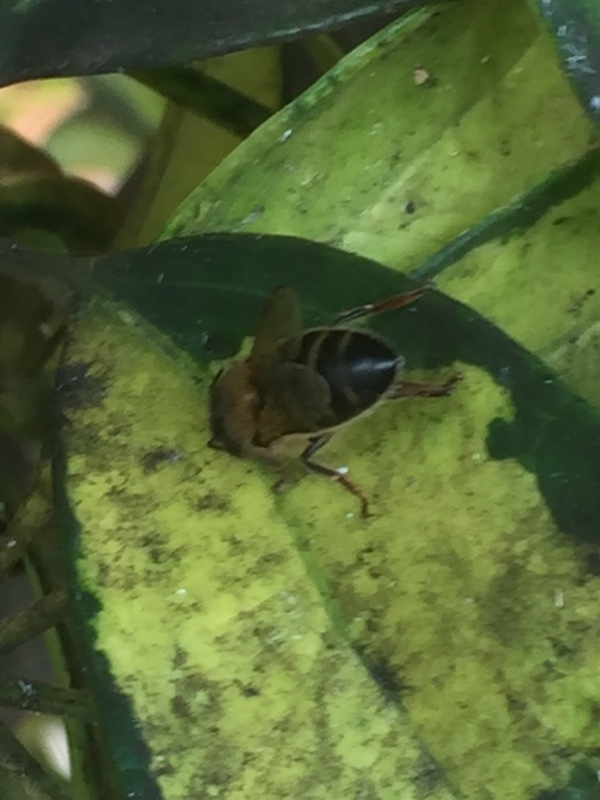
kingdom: Animalia
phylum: Arthropoda
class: Insecta
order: Hymenoptera
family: Apidae
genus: Apis
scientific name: Apis mellifera
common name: Honey bee
